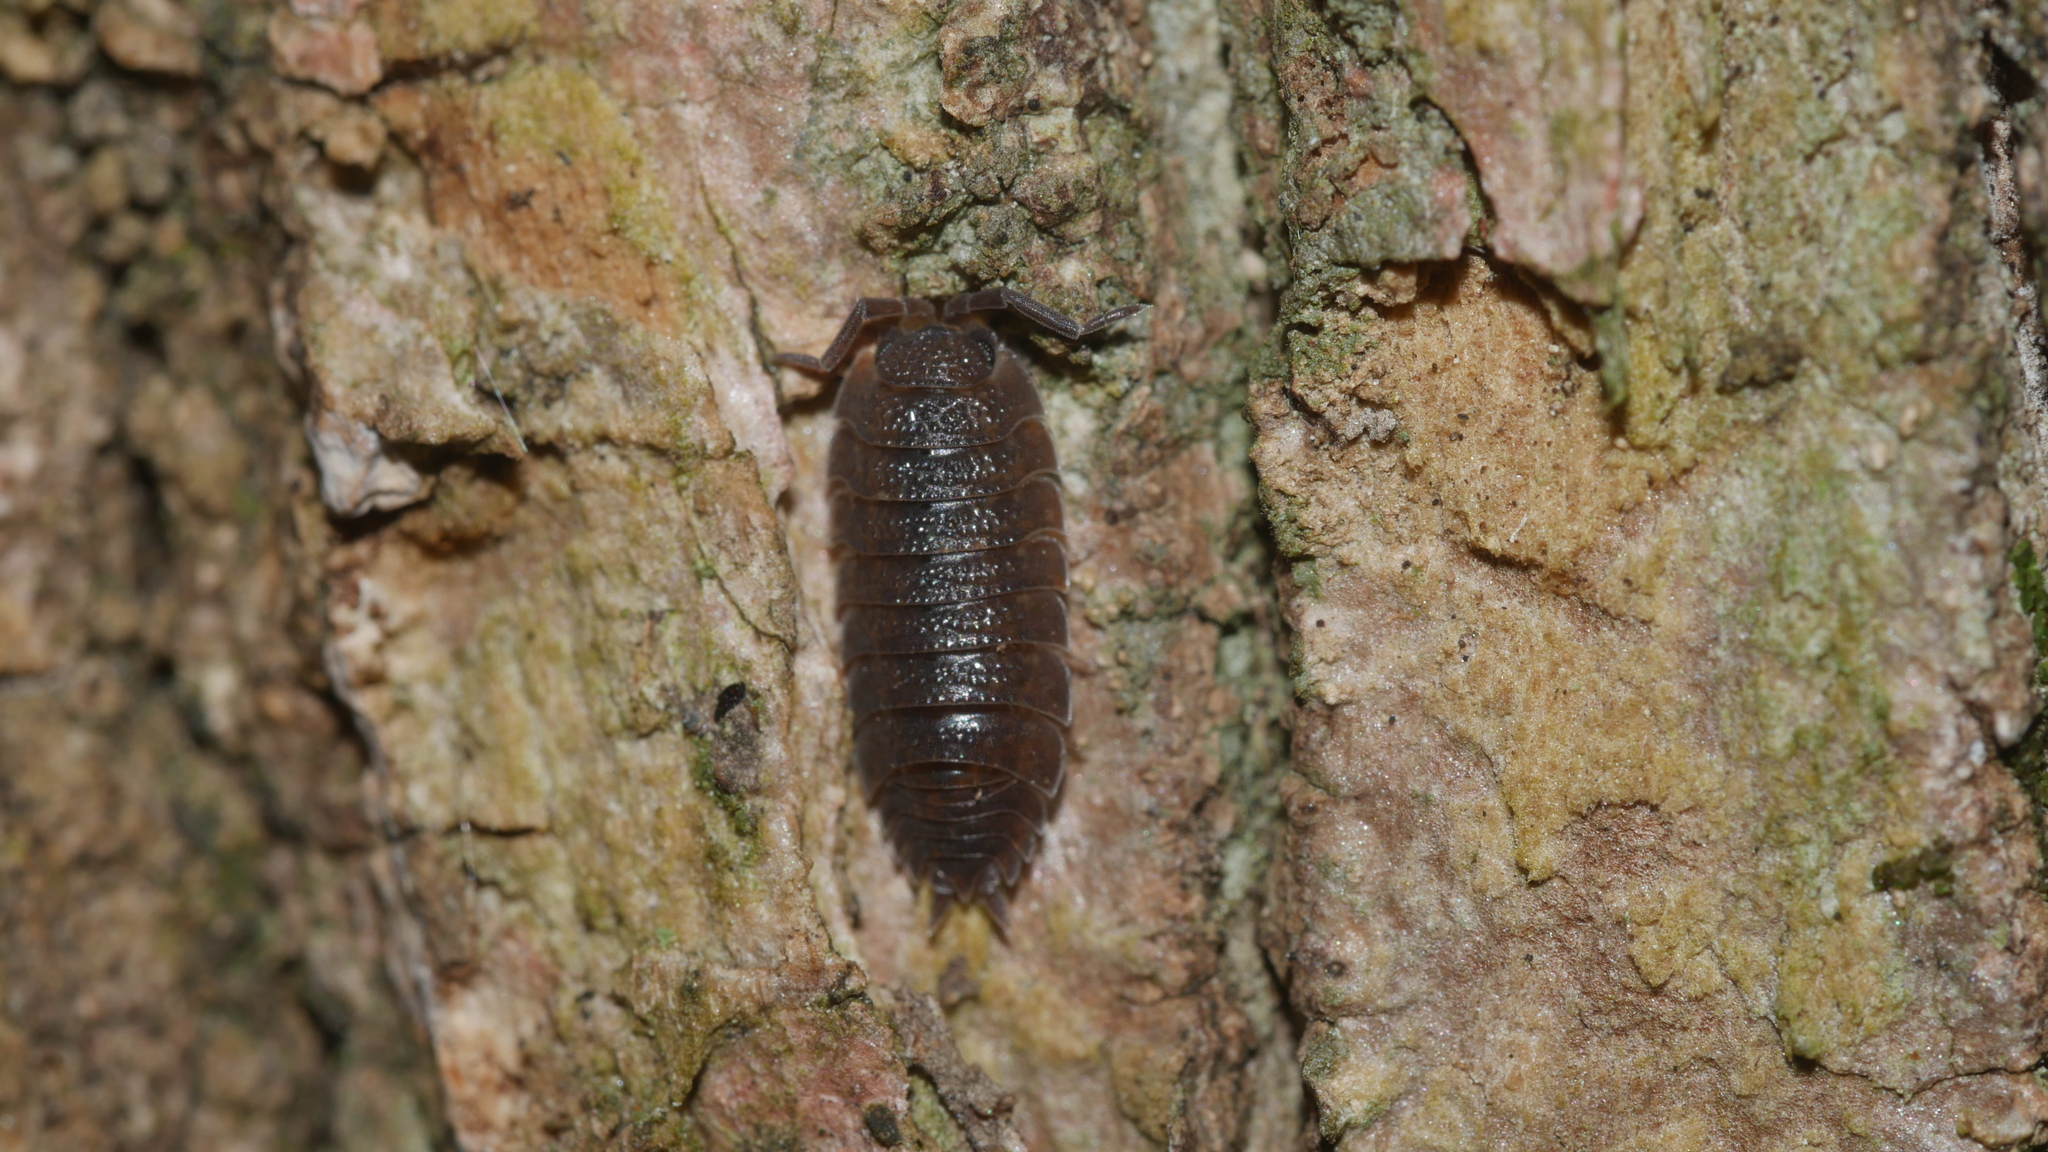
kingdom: Animalia
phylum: Arthropoda
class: Malacostraca
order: Isopoda
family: Porcellionidae
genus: Porcellio
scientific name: Porcellio scaber
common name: Common rough woodlouse
